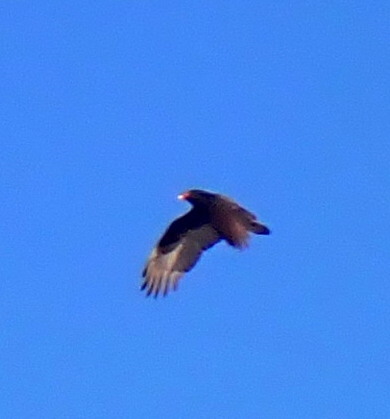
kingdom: Animalia
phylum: Chordata
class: Aves
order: Accipitriformes
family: Cathartidae
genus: Cathartes
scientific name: Cathartes aura
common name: Turkey vulture
